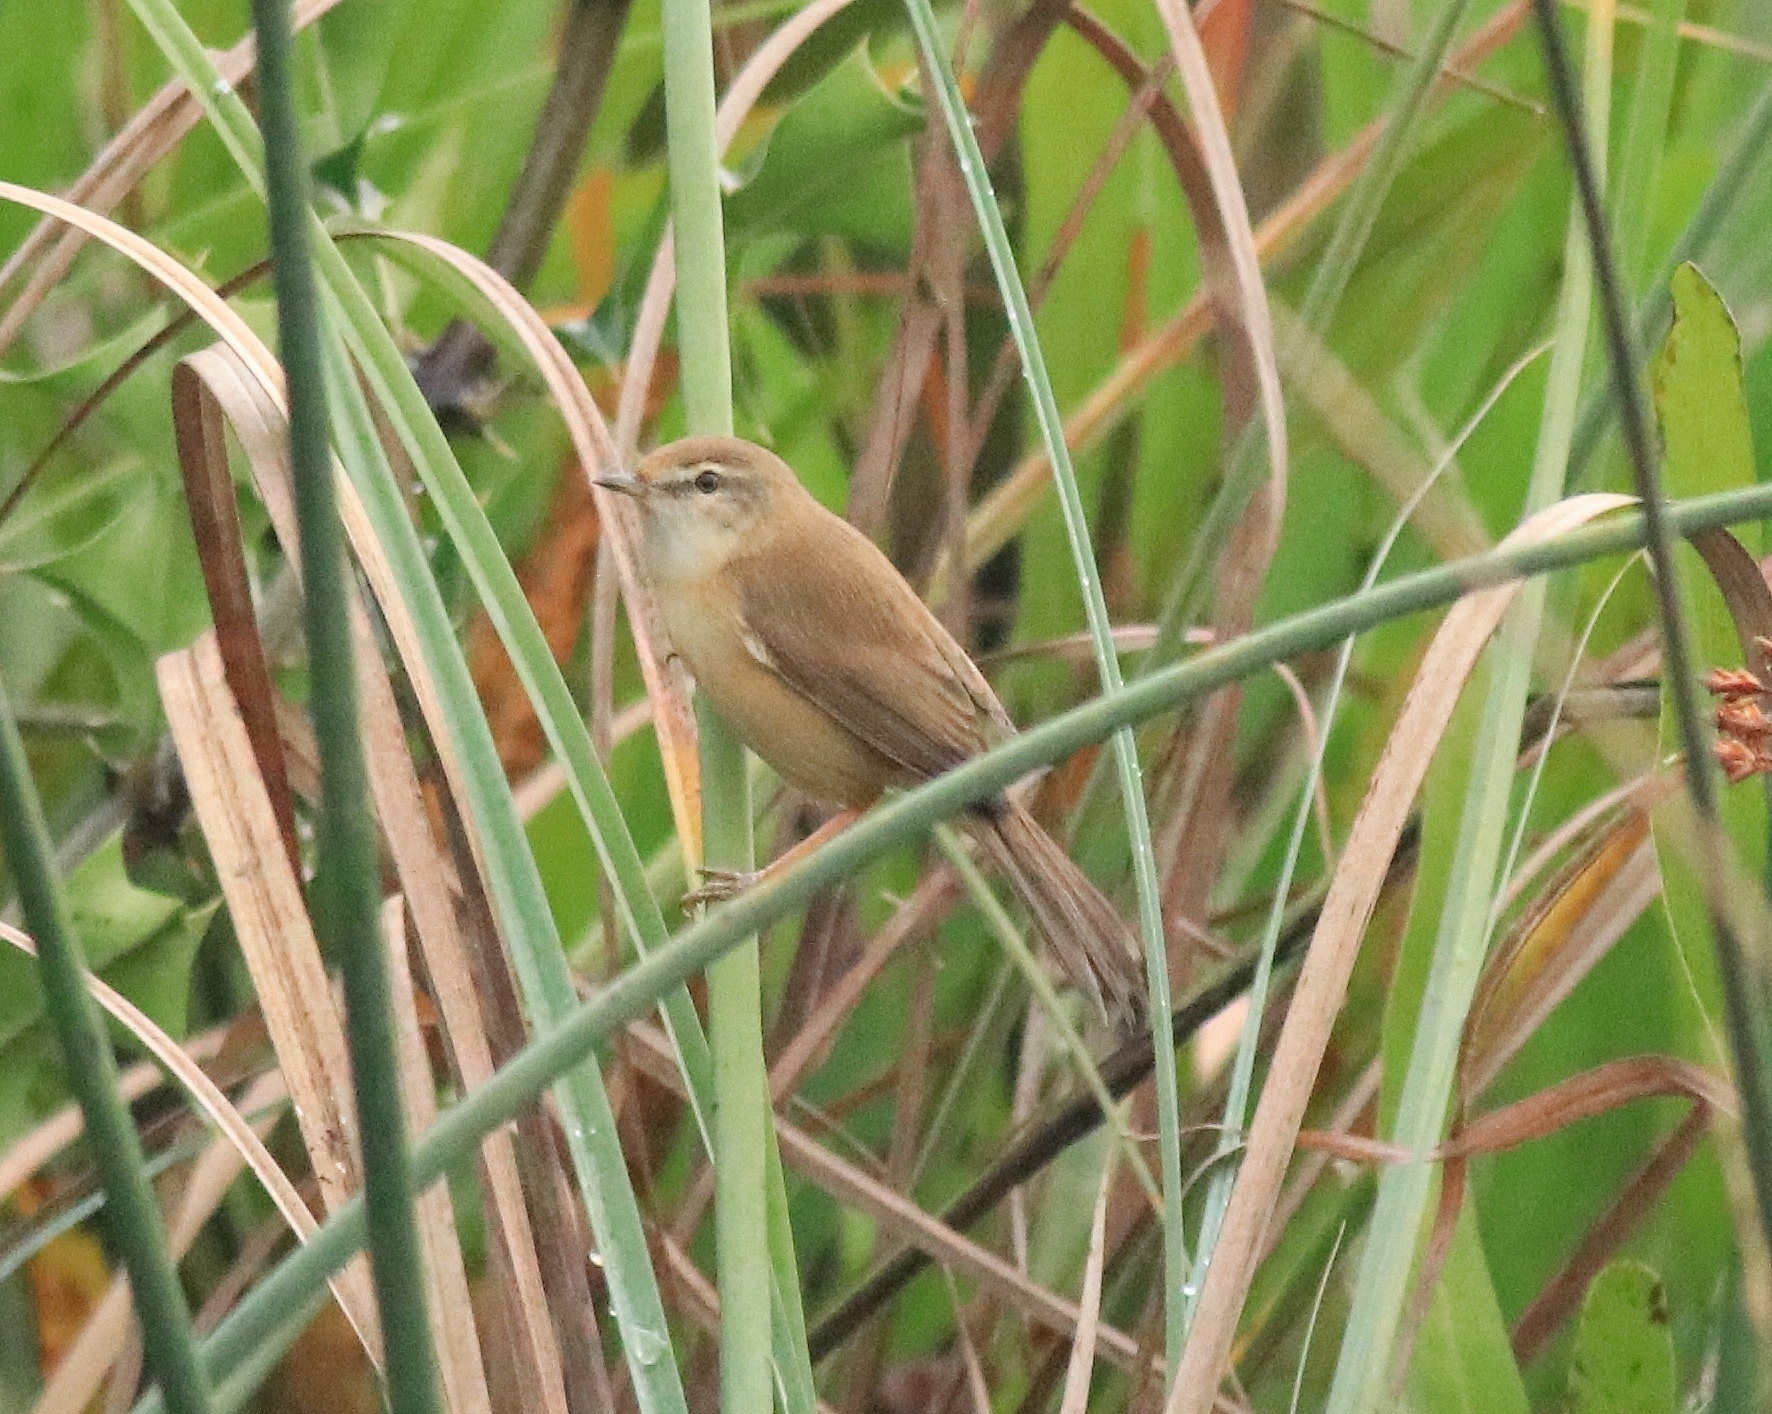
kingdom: Animalia
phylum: Chordata
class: Aves
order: Passeriformes
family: Acrocephalidae
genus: Acrocephalus
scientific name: Acrocephalus agricola
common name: Paddyfield warbler
